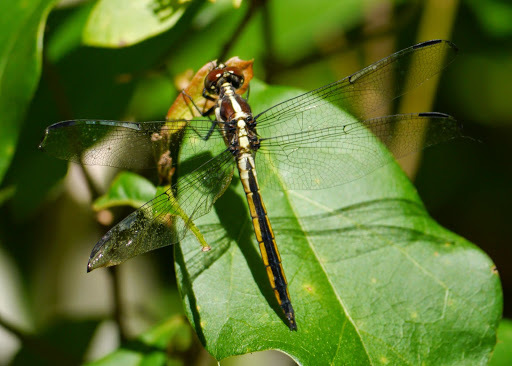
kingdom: Animalia
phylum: Arthropoda
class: Insecta
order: Odonata
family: Libellulidae
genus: Libellula
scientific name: Libellula incesta
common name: Slaty skimmer
